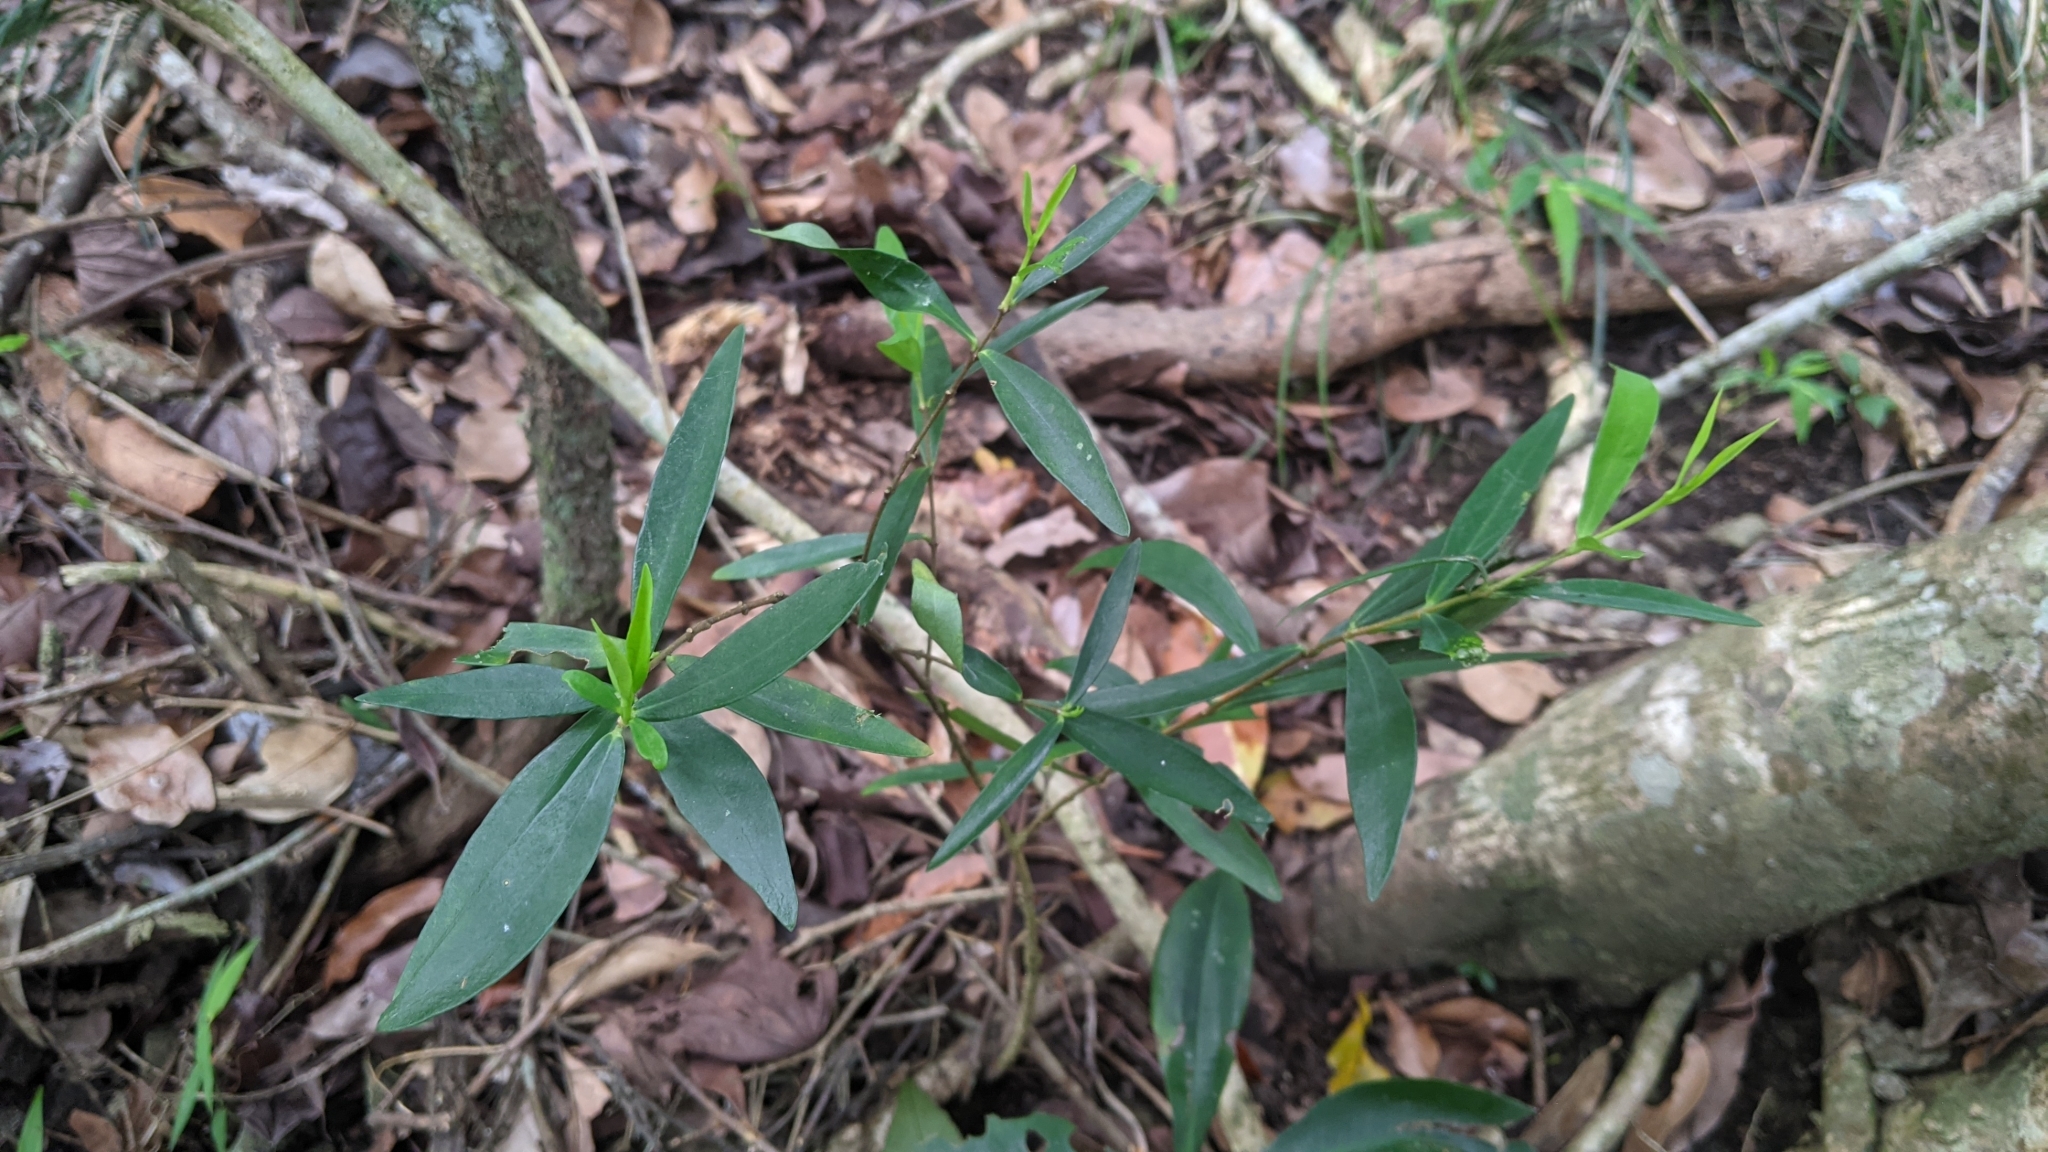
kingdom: Plantae
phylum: Tracheophyta
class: Magnoliopsida
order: Malvales
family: Thymelaeaceae
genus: Wikstroemia
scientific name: Wikstroemia taiwanensis
